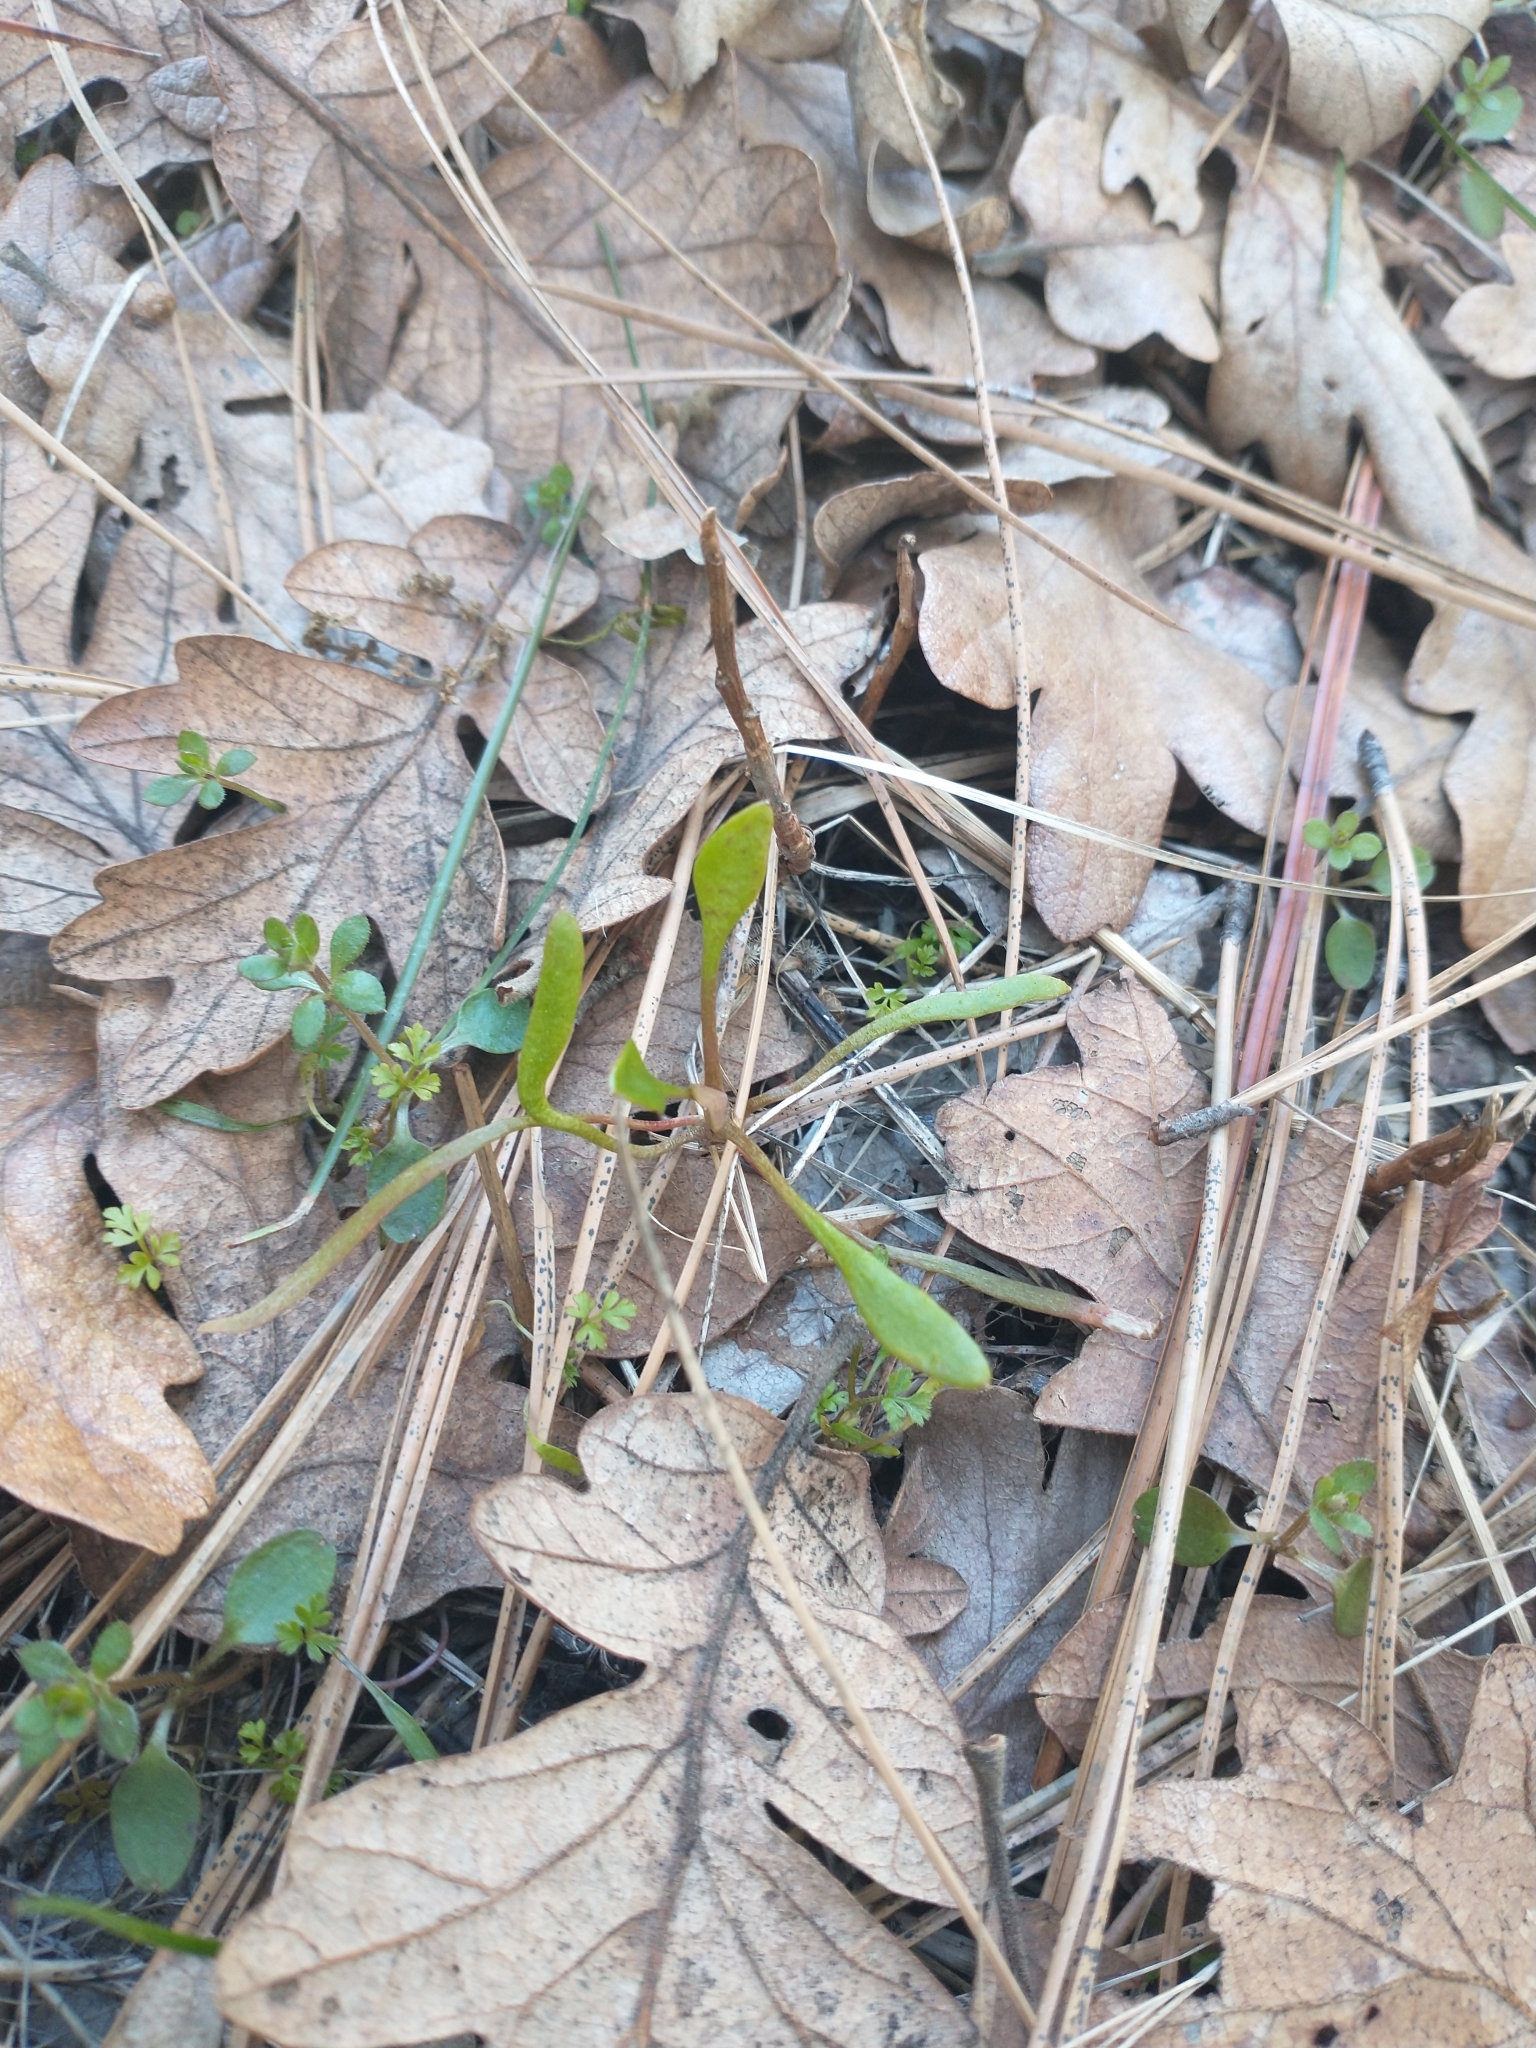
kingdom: Plantae
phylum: Tracheophyta
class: Magnoliopsida
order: Caryophyllales
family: Montiaceae
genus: Claytonia
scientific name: Claytonia perfoliata
